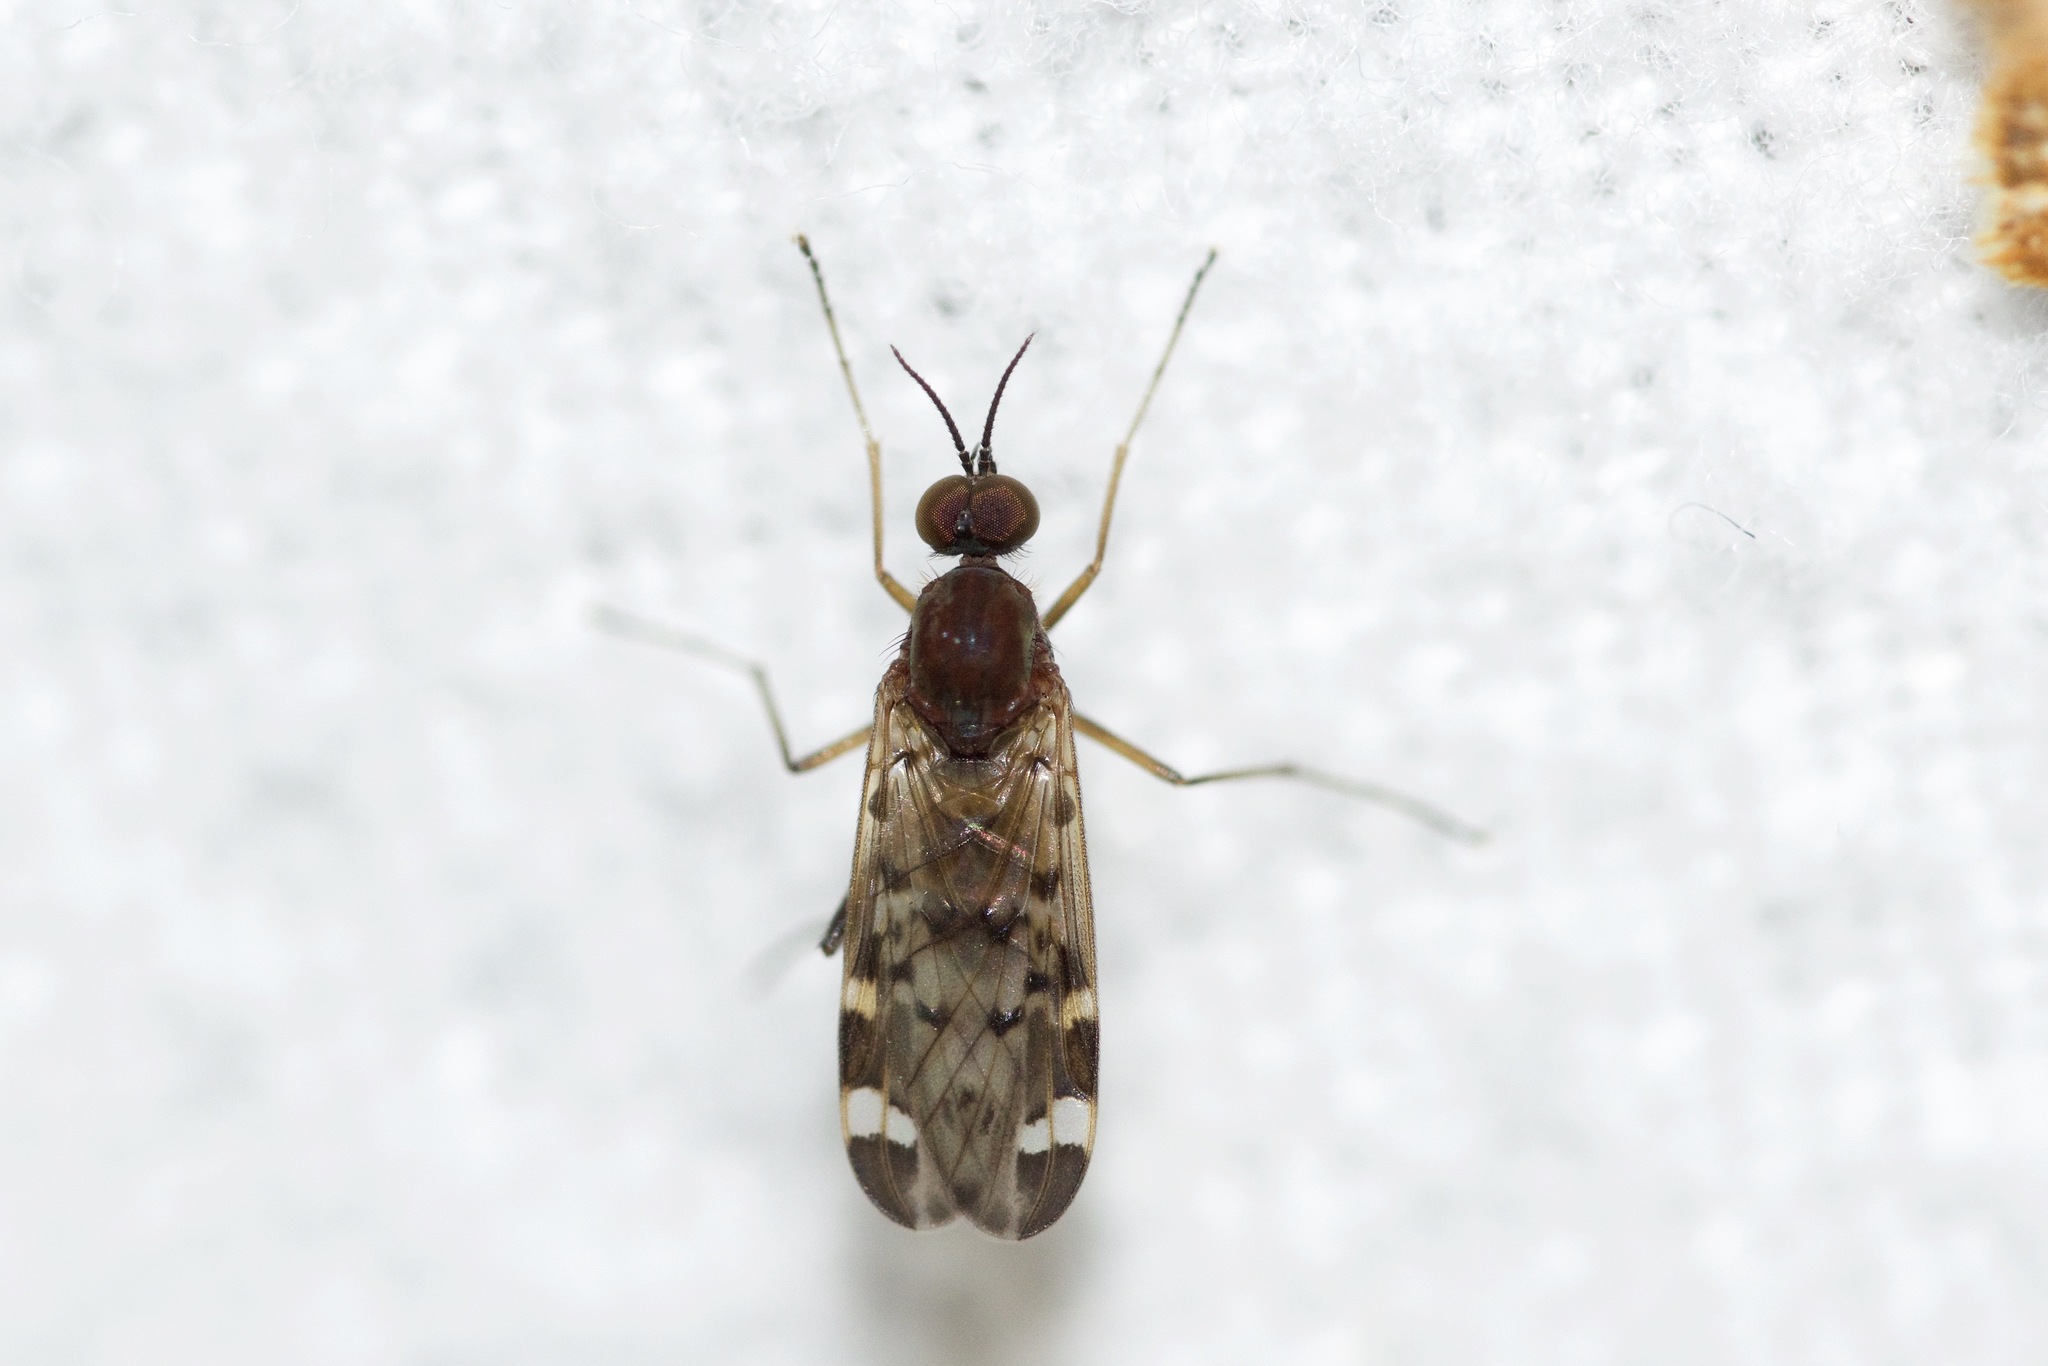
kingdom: Animalia
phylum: Arthropoda
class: Insecta
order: Diptera
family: Anisopodidae
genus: Sylvicola
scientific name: Sylvicola alternata
